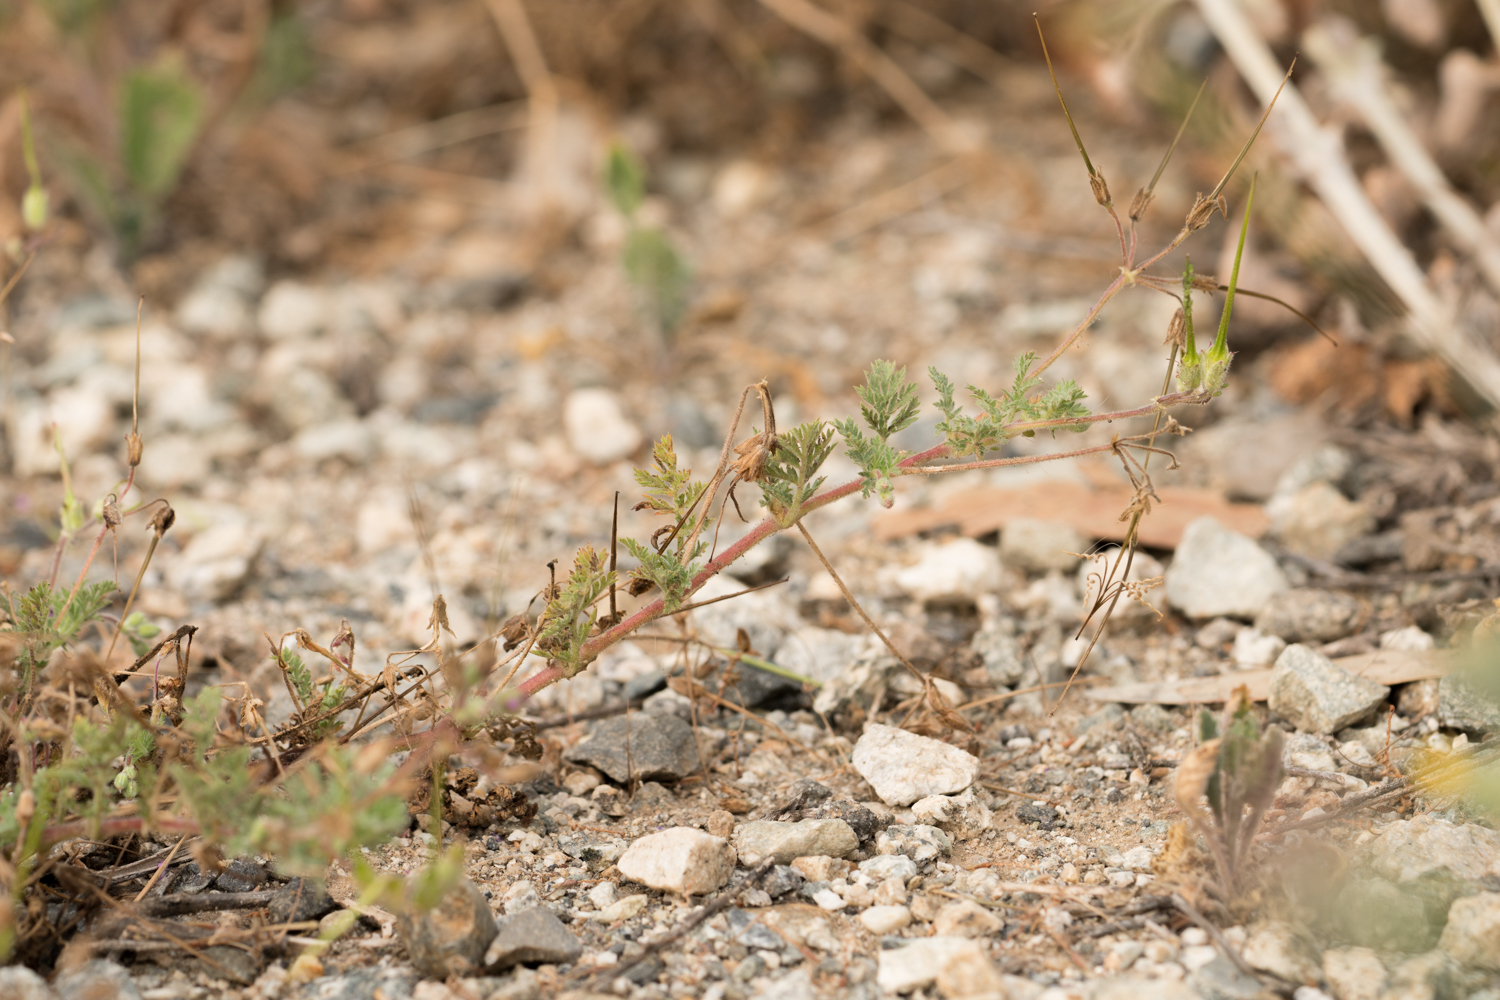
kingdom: Plantae
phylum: Tracheophyta
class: Magnoliopsida
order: Geraniales
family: Geraniaceae
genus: Erodium
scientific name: Erodium cicutarium
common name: Common stork's-bill
